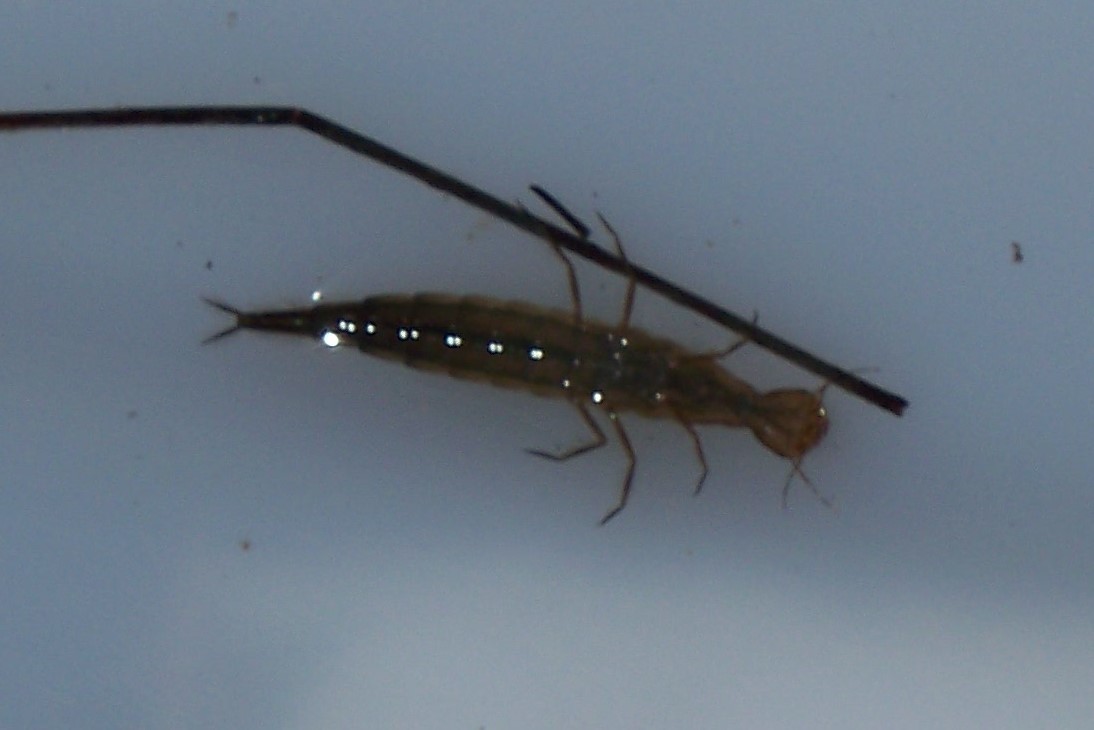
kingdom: Animalia
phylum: Arthropoda
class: Insecta
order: Coleoptera
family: Dytiscidae
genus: Dytiscus
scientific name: Dytiscus
